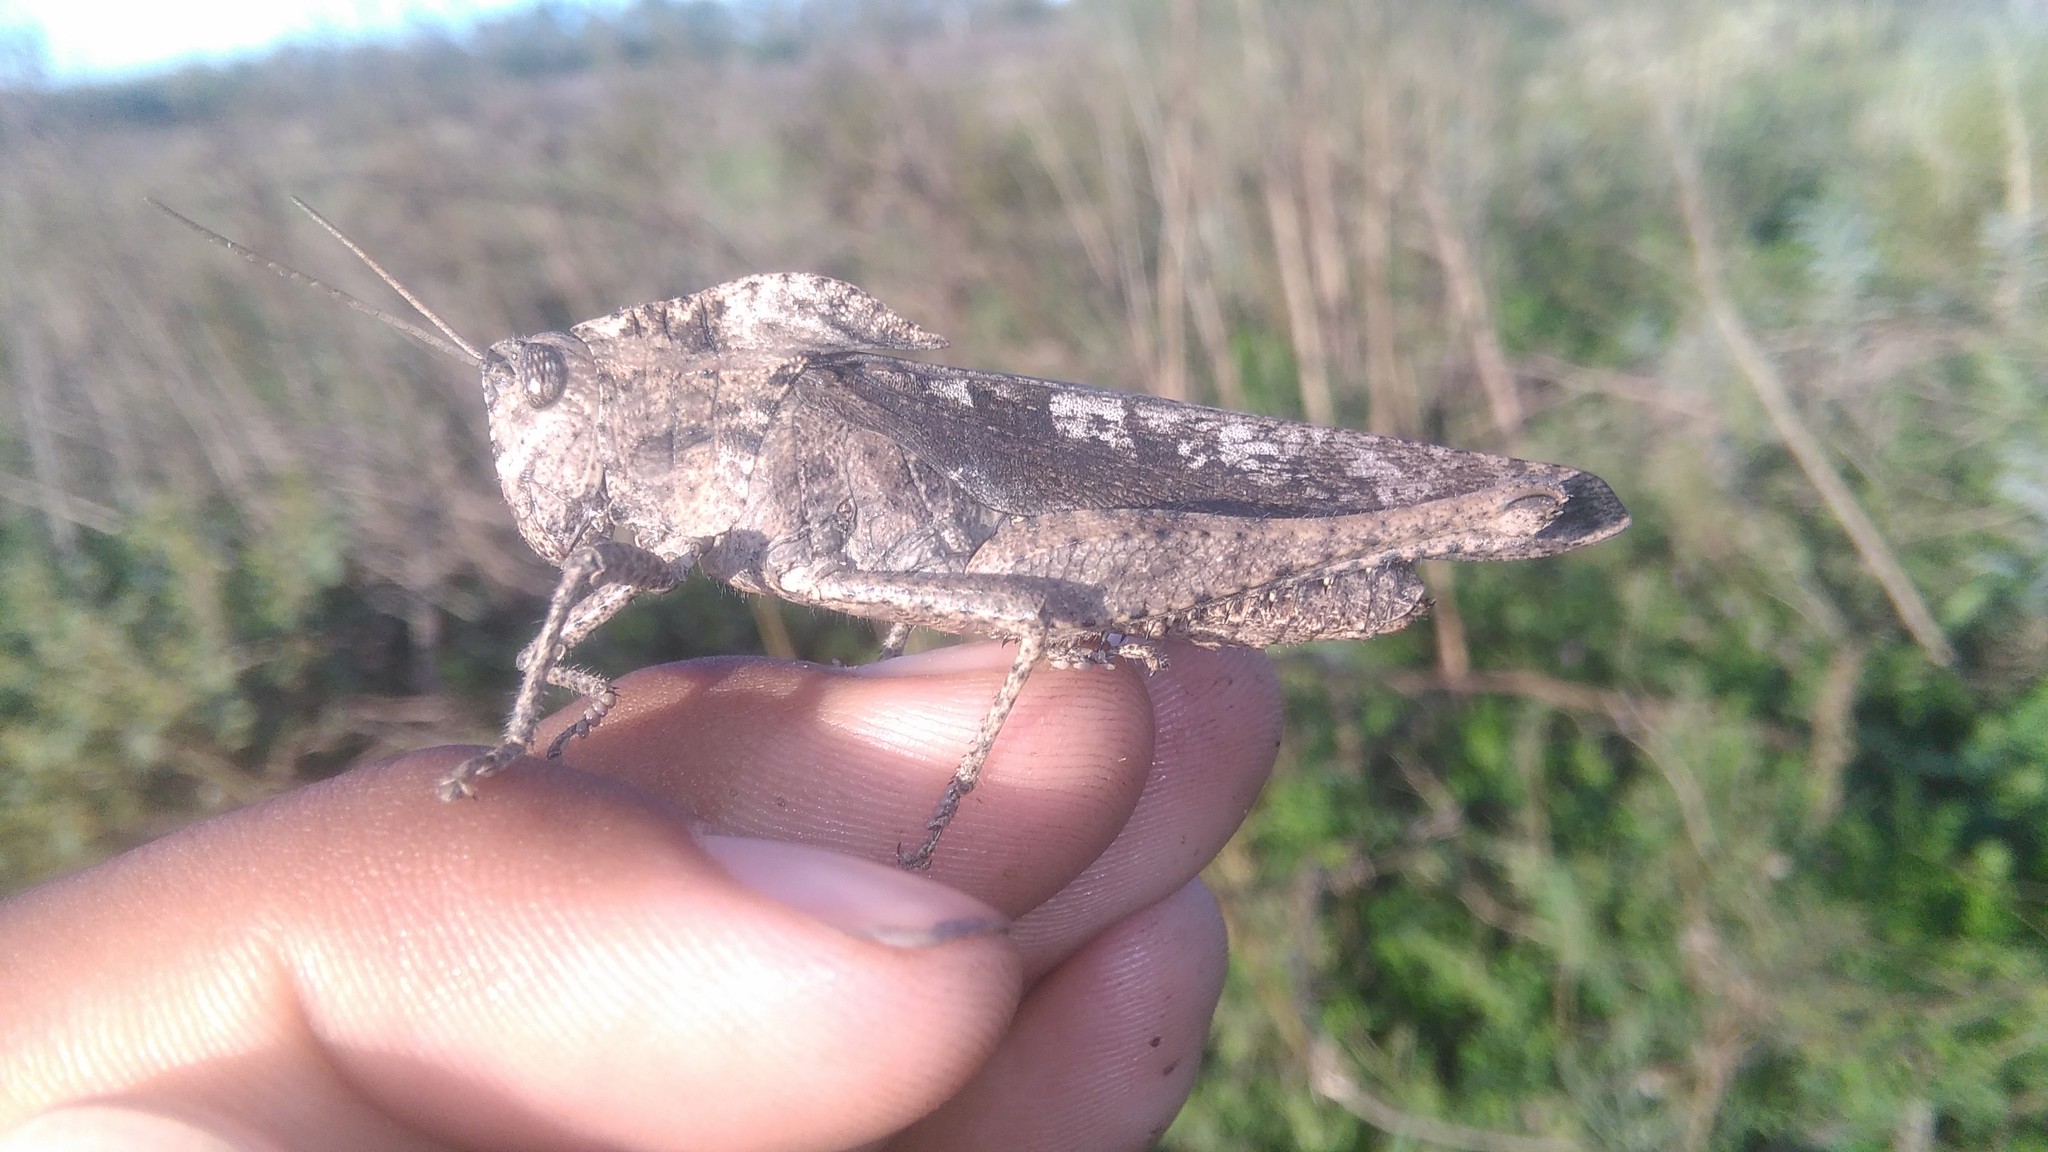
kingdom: Animalia
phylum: Arthropoda
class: Insecta
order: Orthoptera
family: Romaleidae
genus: Xyleus
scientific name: Xyleus discoideus
